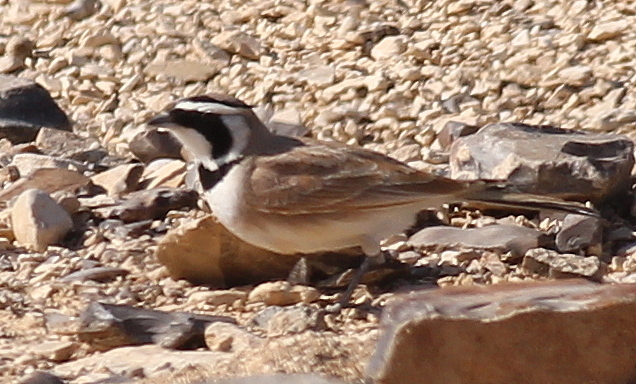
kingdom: Animalia
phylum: Chordata
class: Aves
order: Passeriformes
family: Alaudidae
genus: Eremophila
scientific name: Eremophila bilopha
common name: Temminck's lark
